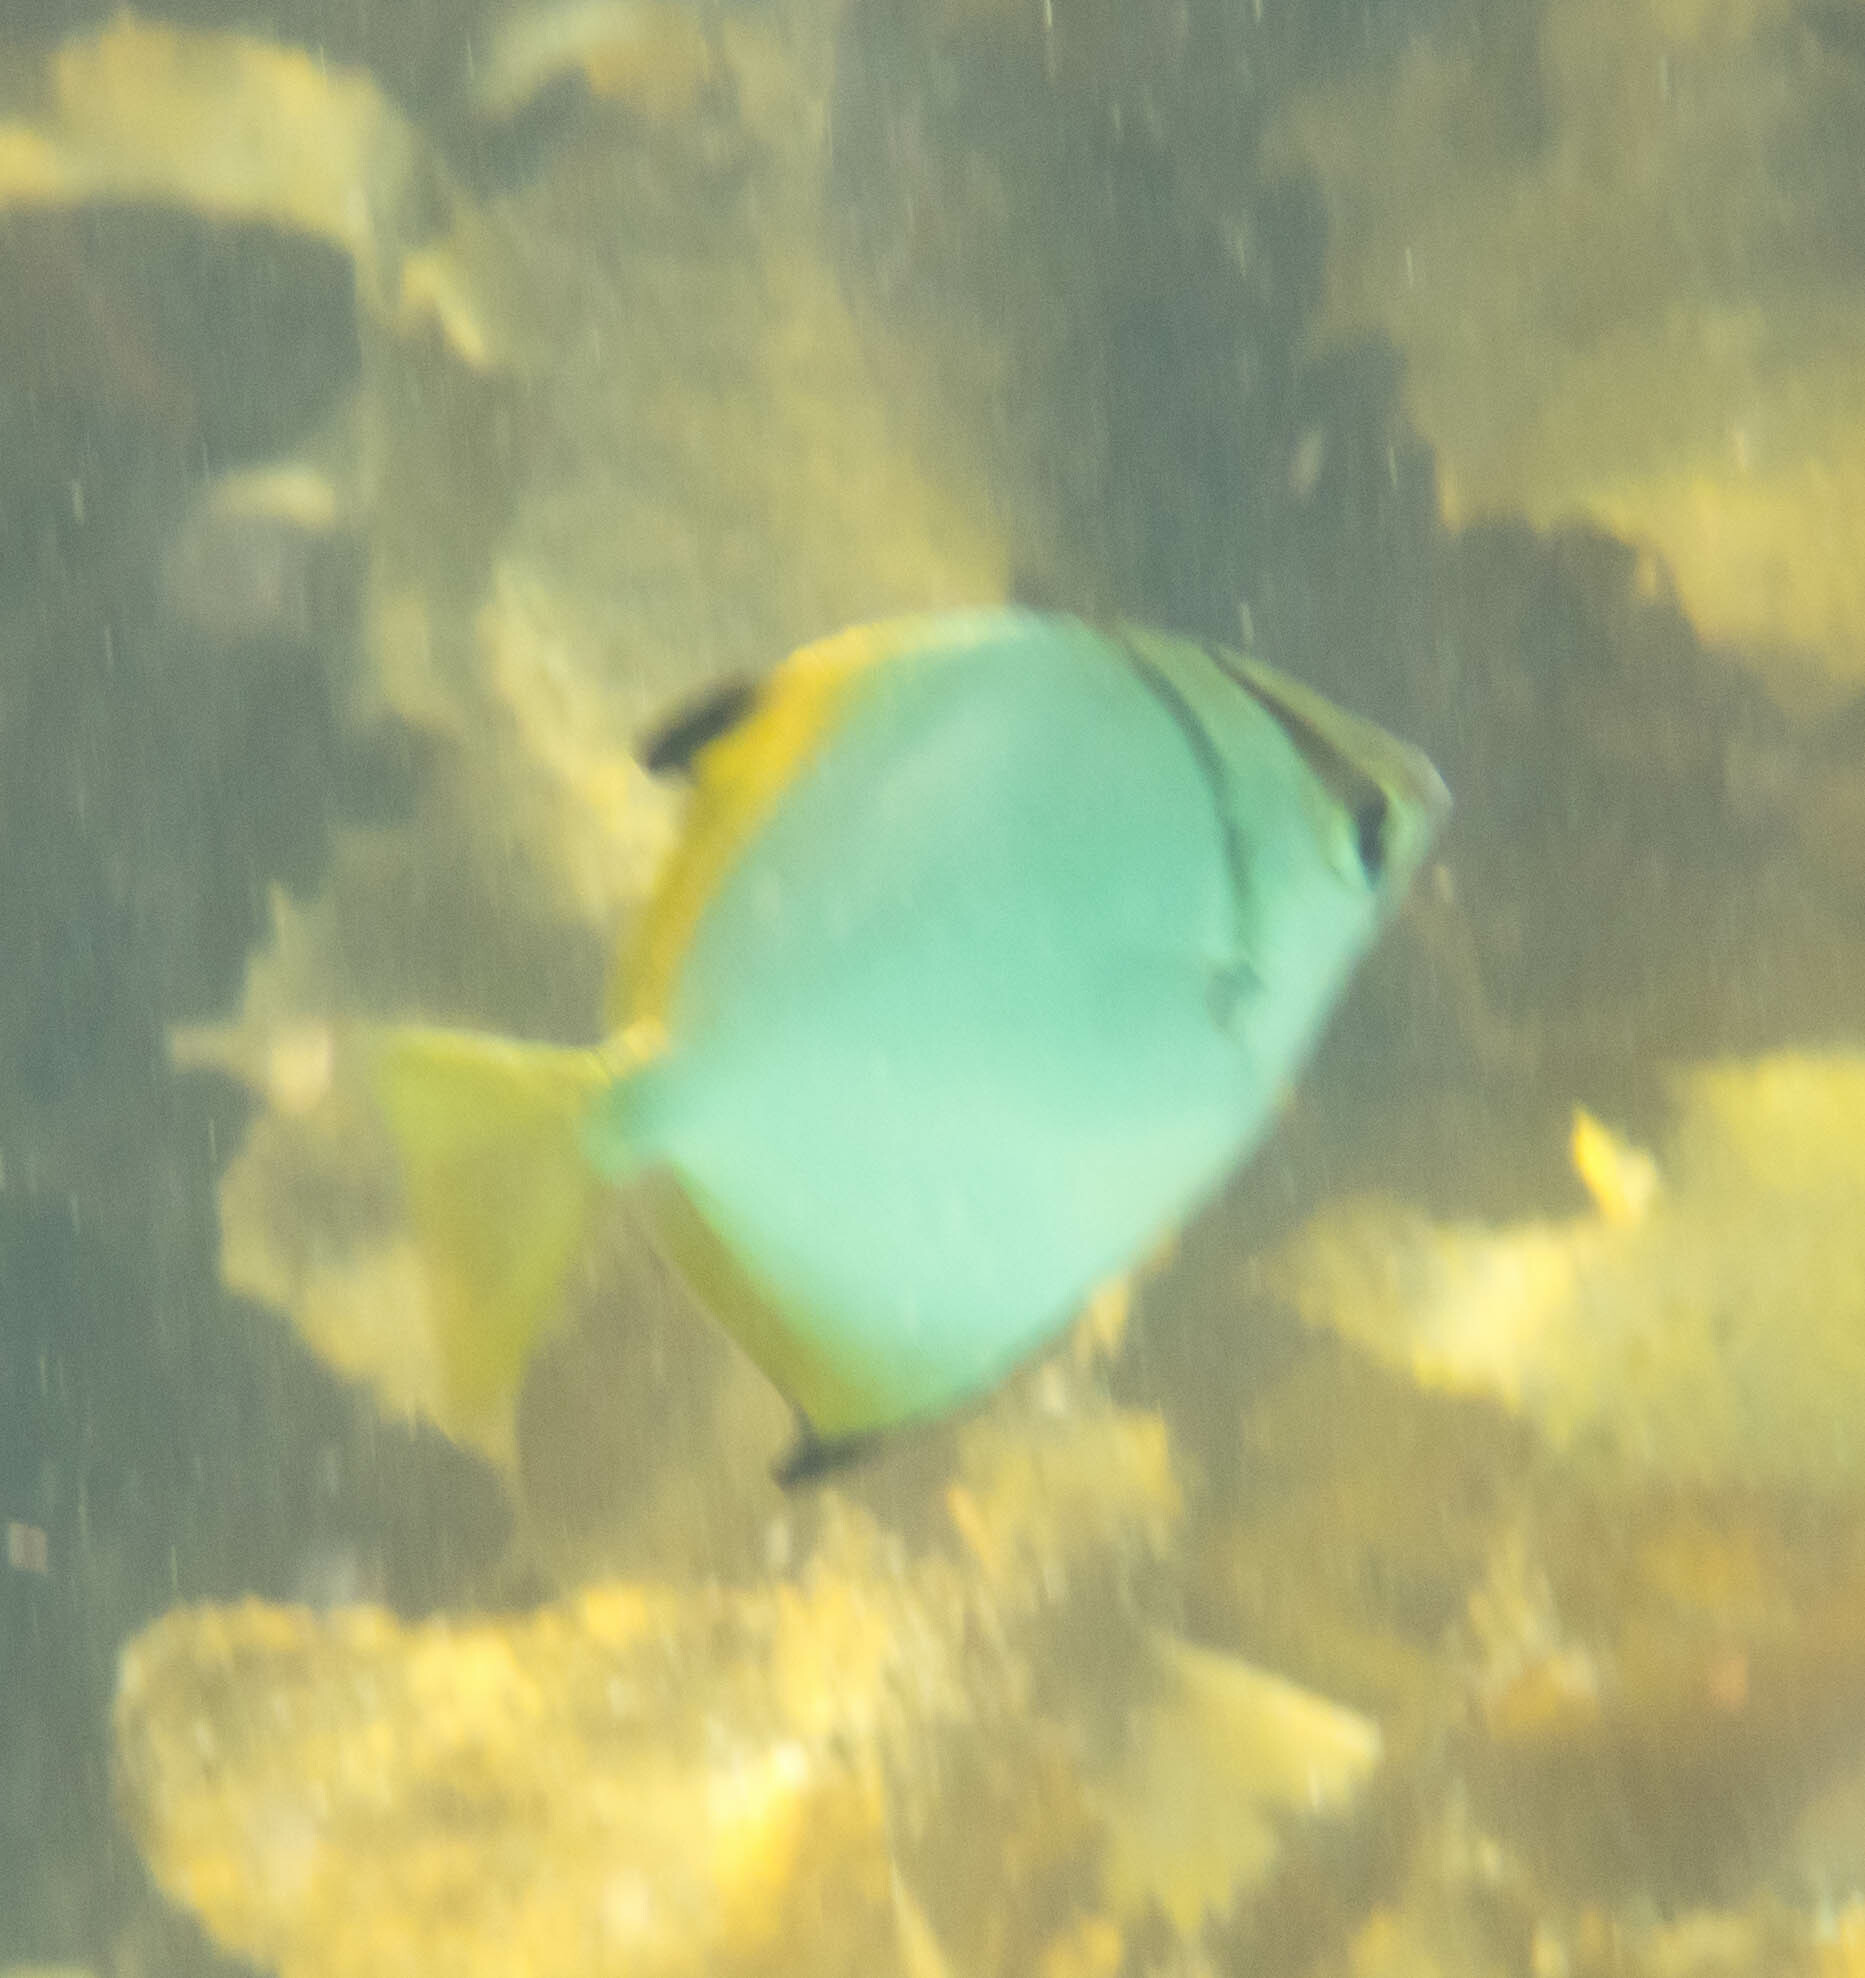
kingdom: Animalia
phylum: Chordata
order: Perciformes
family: Monodactylidae
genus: Monodactylus
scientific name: Monodactylus argenteus
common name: Silver moony
